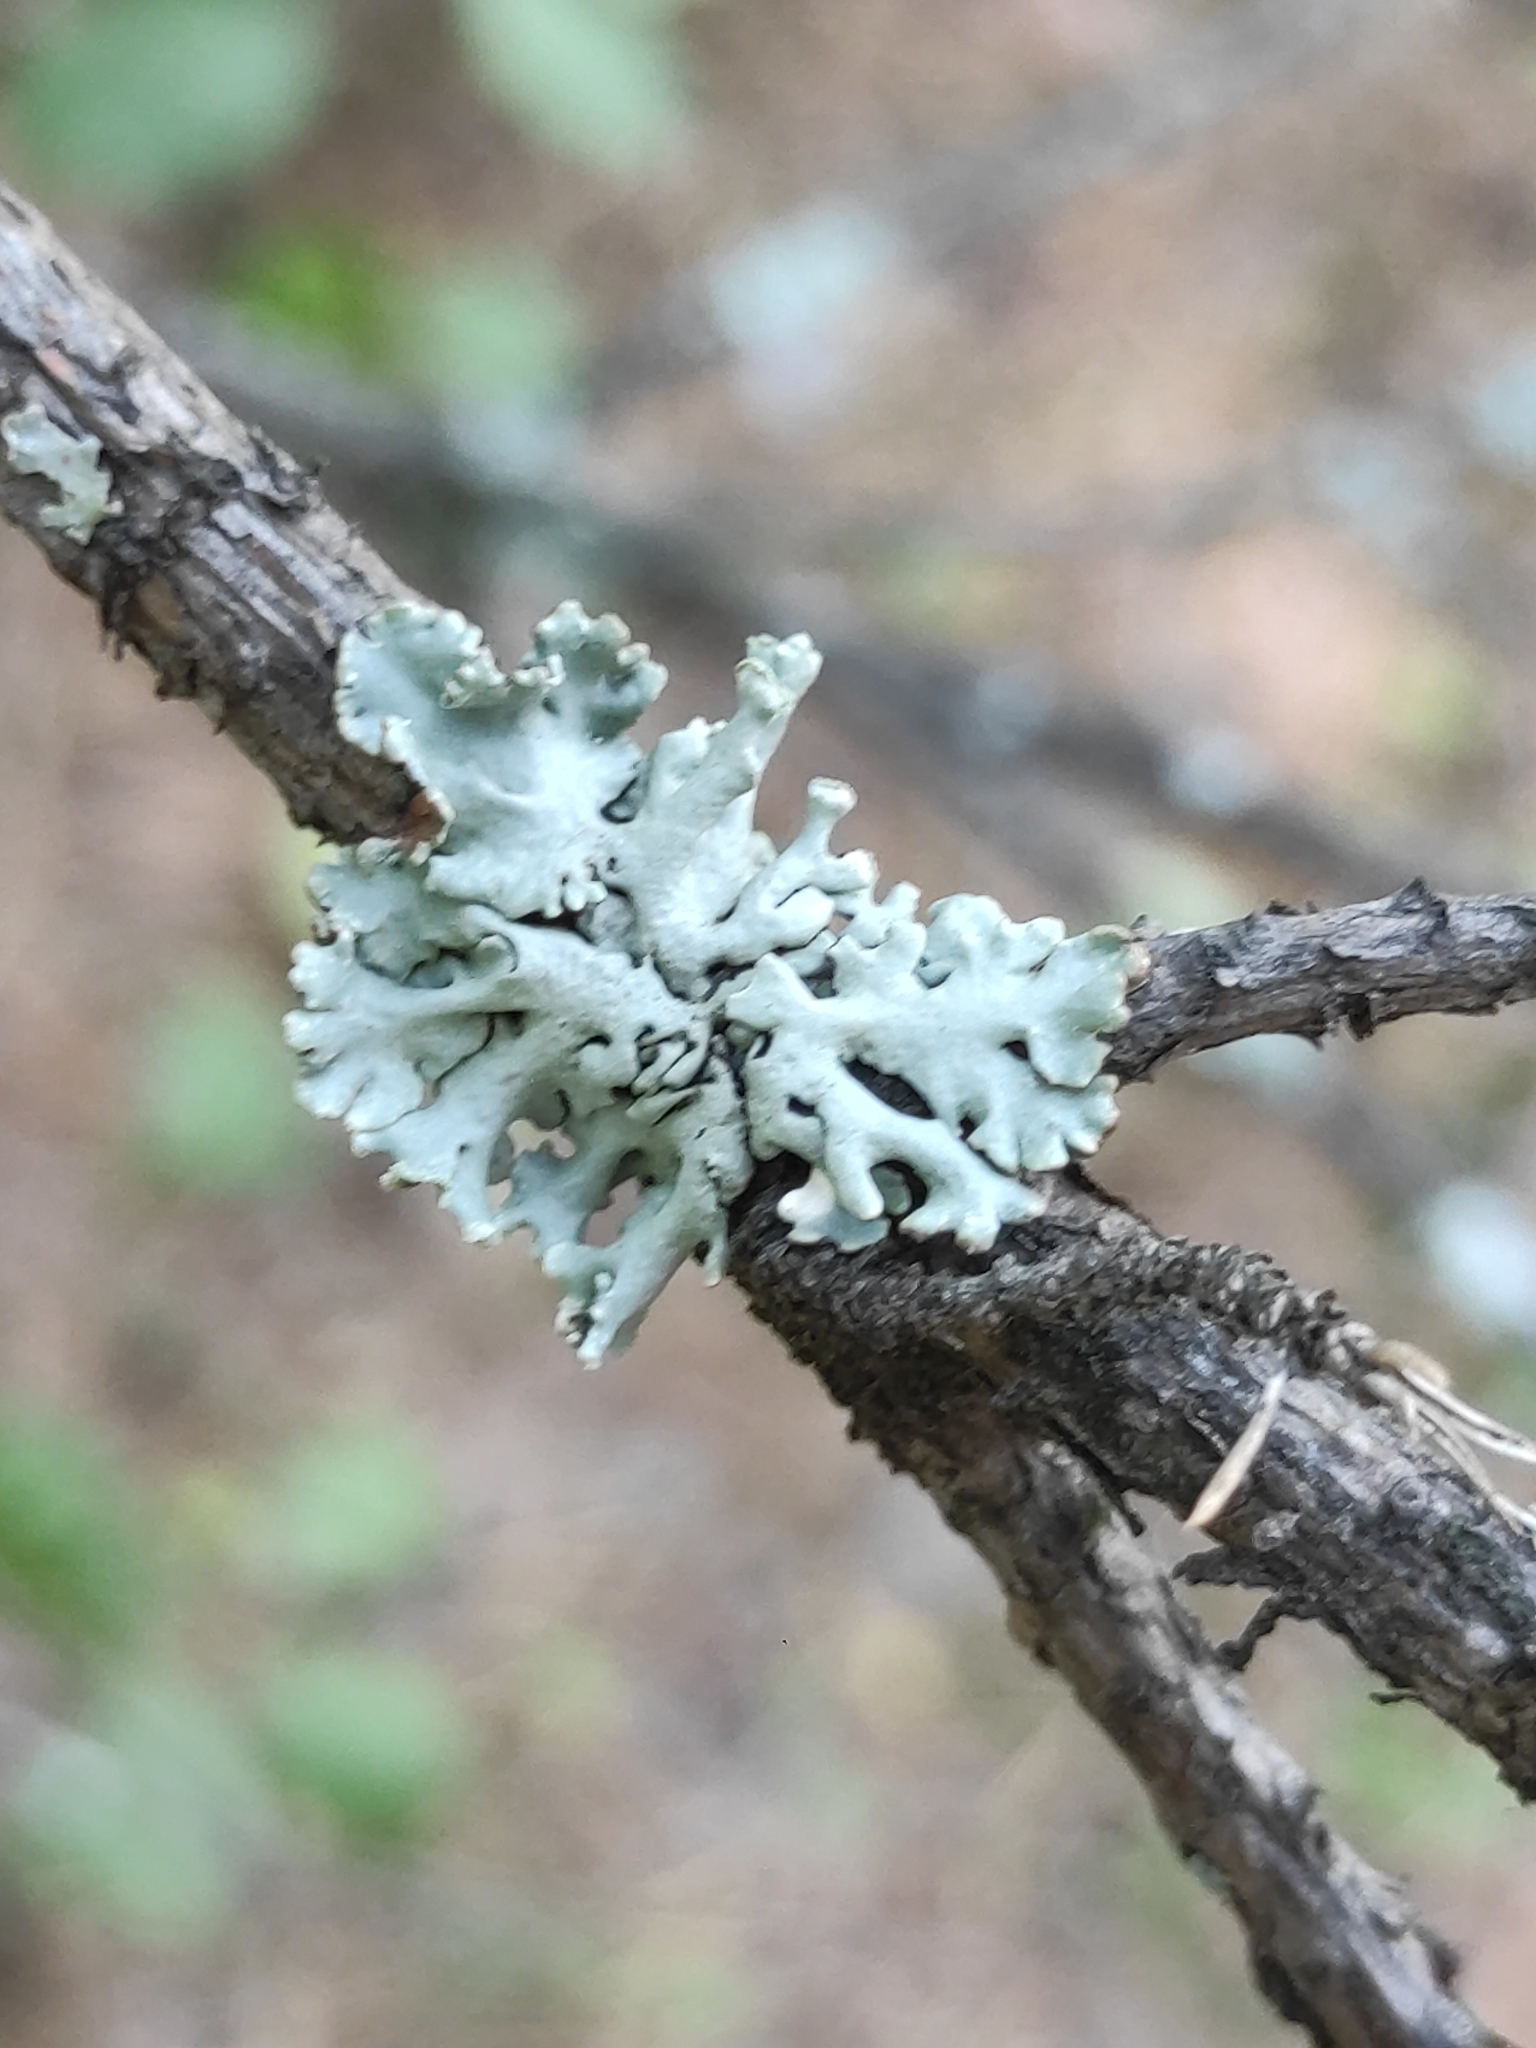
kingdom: Fungi
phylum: Ascomycota
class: Lecanoromycetes
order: Lecanorales
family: Parmeliaceae
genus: Hypogymnia
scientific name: Hypogymnia physodes
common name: Dark crottle
